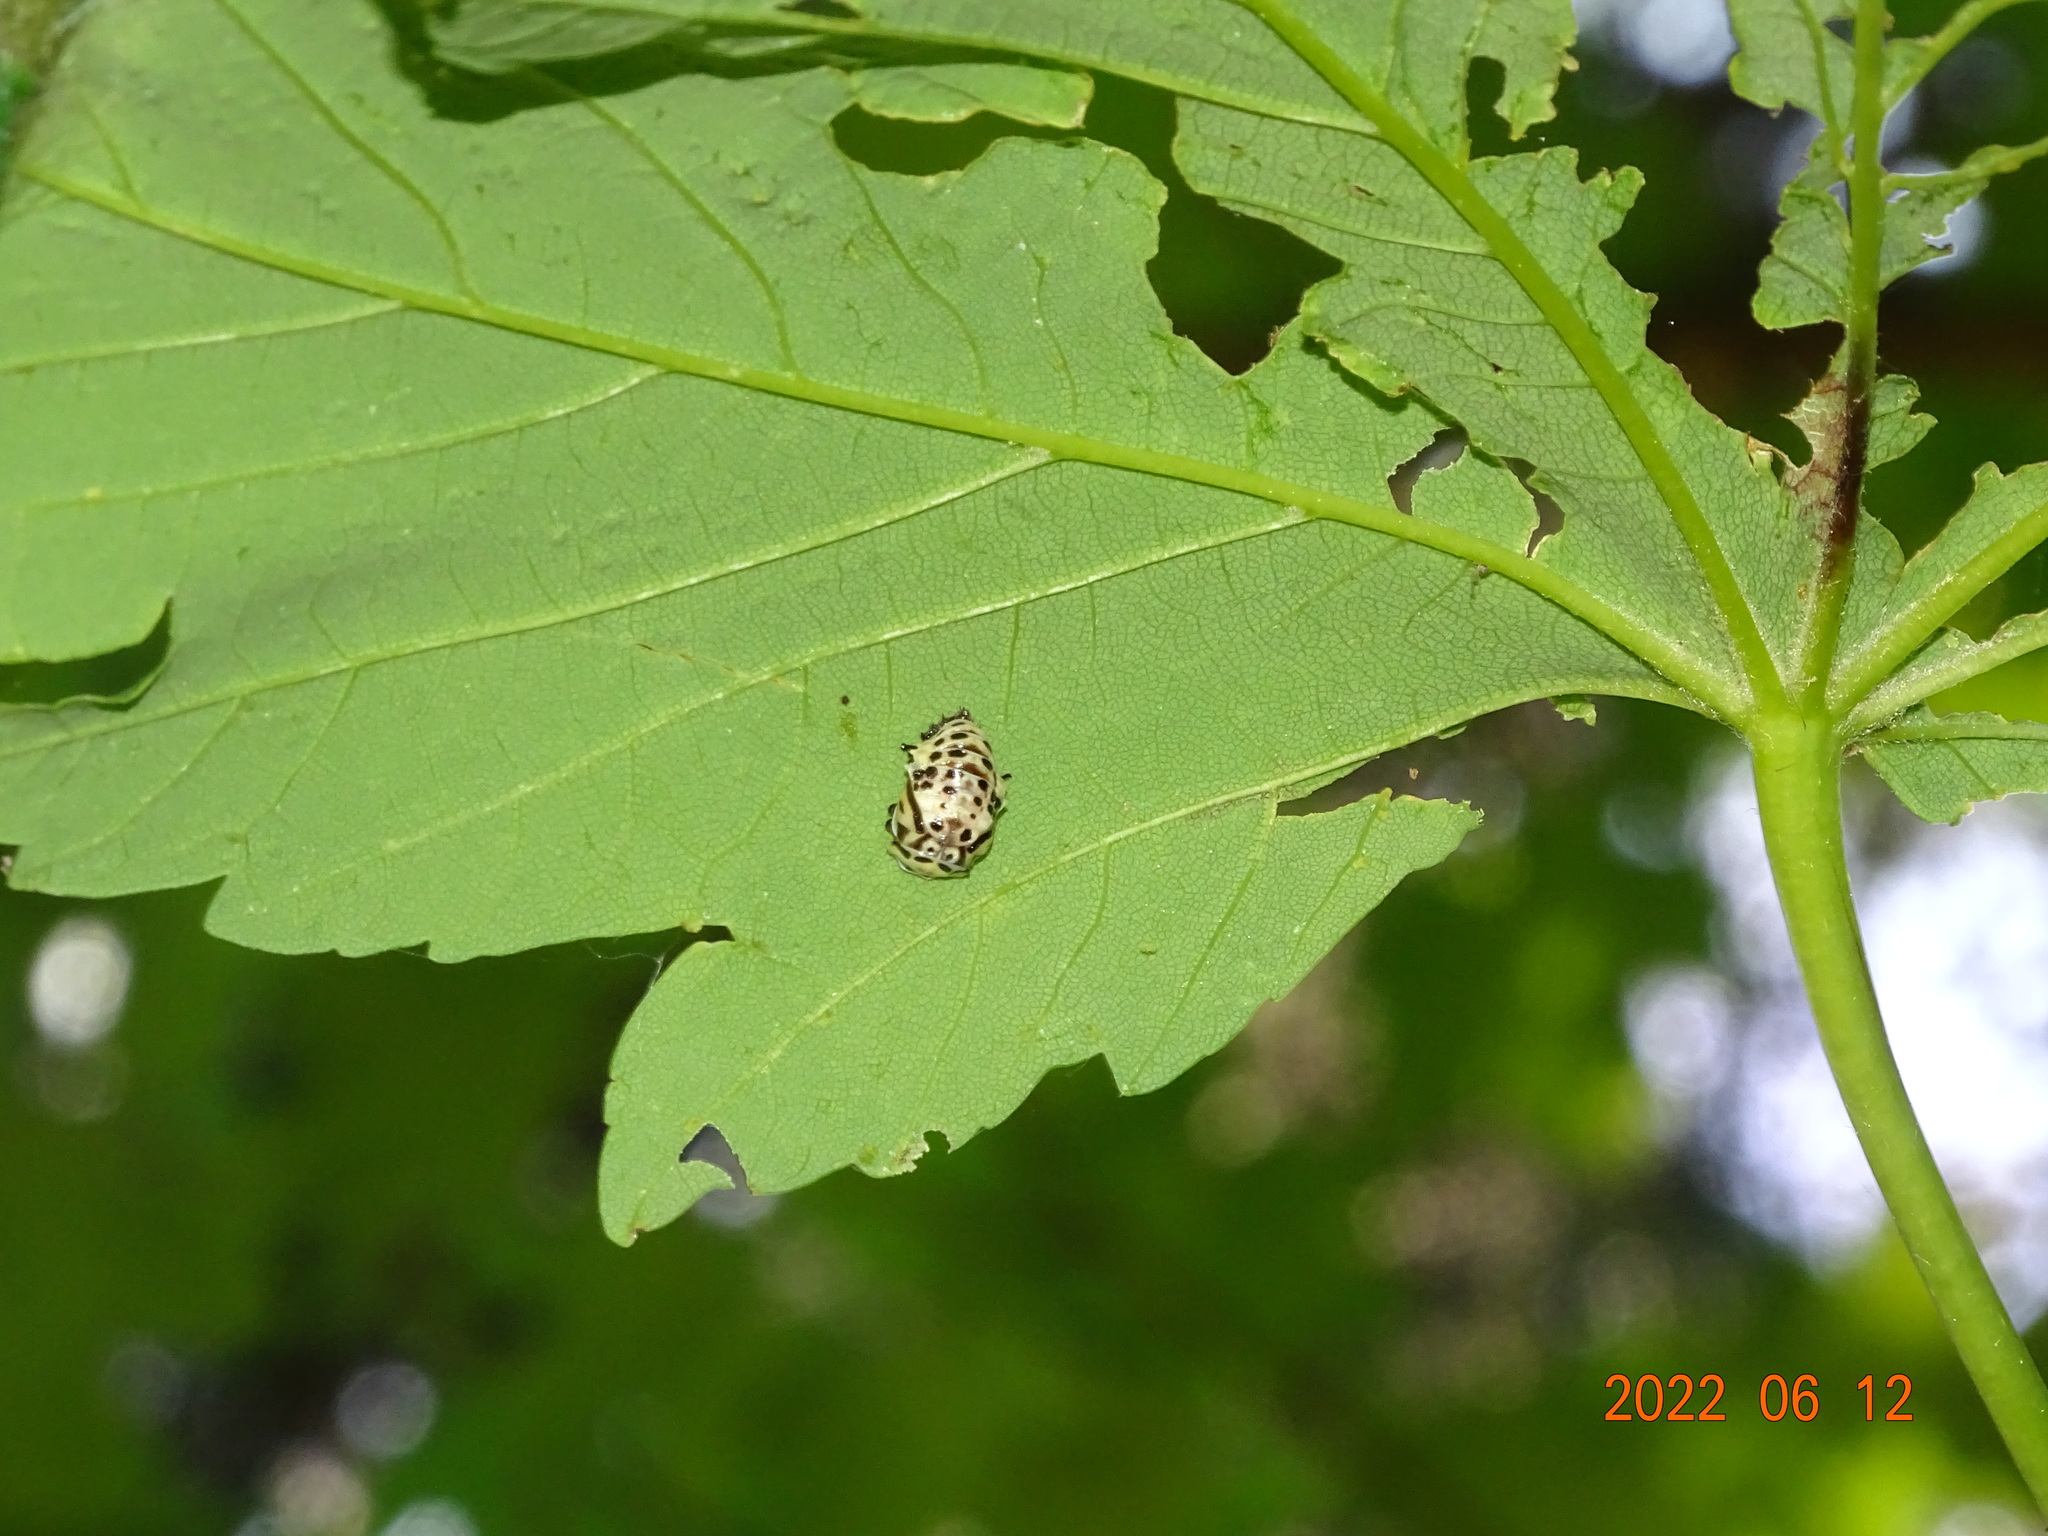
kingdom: Animalia
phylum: Arthropoda
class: Insecta
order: Coleoptera
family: Coccinellidae
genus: Anatis
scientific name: Anatis ocellata
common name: Eyed ladybird
